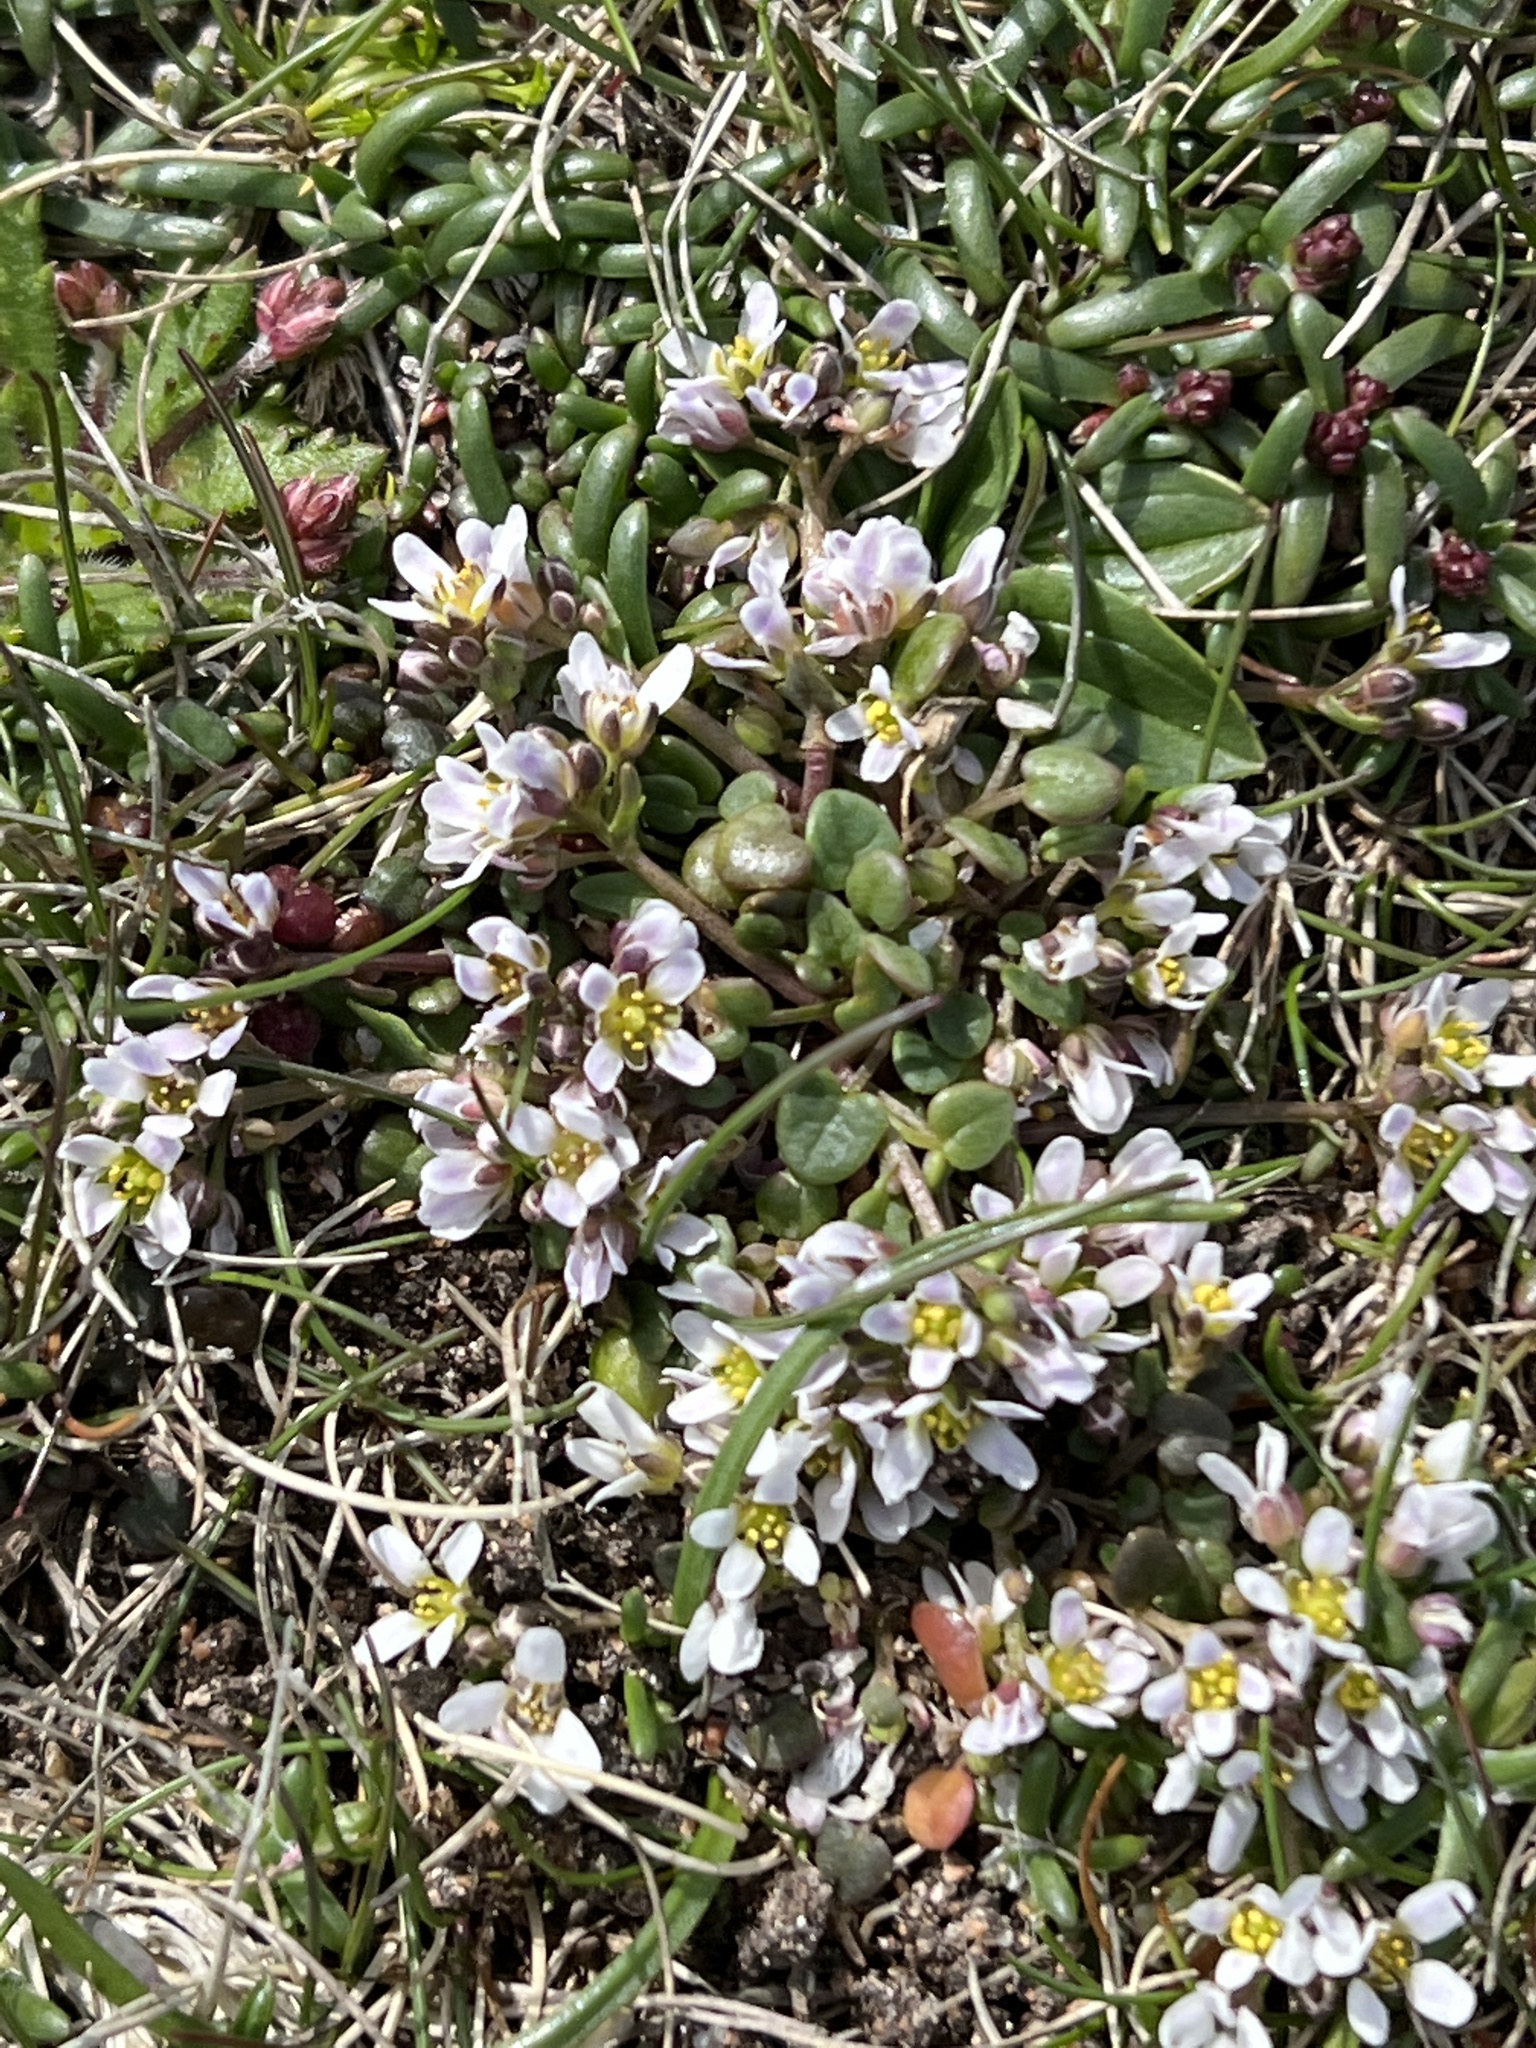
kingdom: Plantae
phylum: Tracheophyta
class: Magnoliopsida
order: Brassicales
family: Brassicaceae
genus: Cochlearia
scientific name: Cochlearia officinalis
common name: Scurvy-grass
